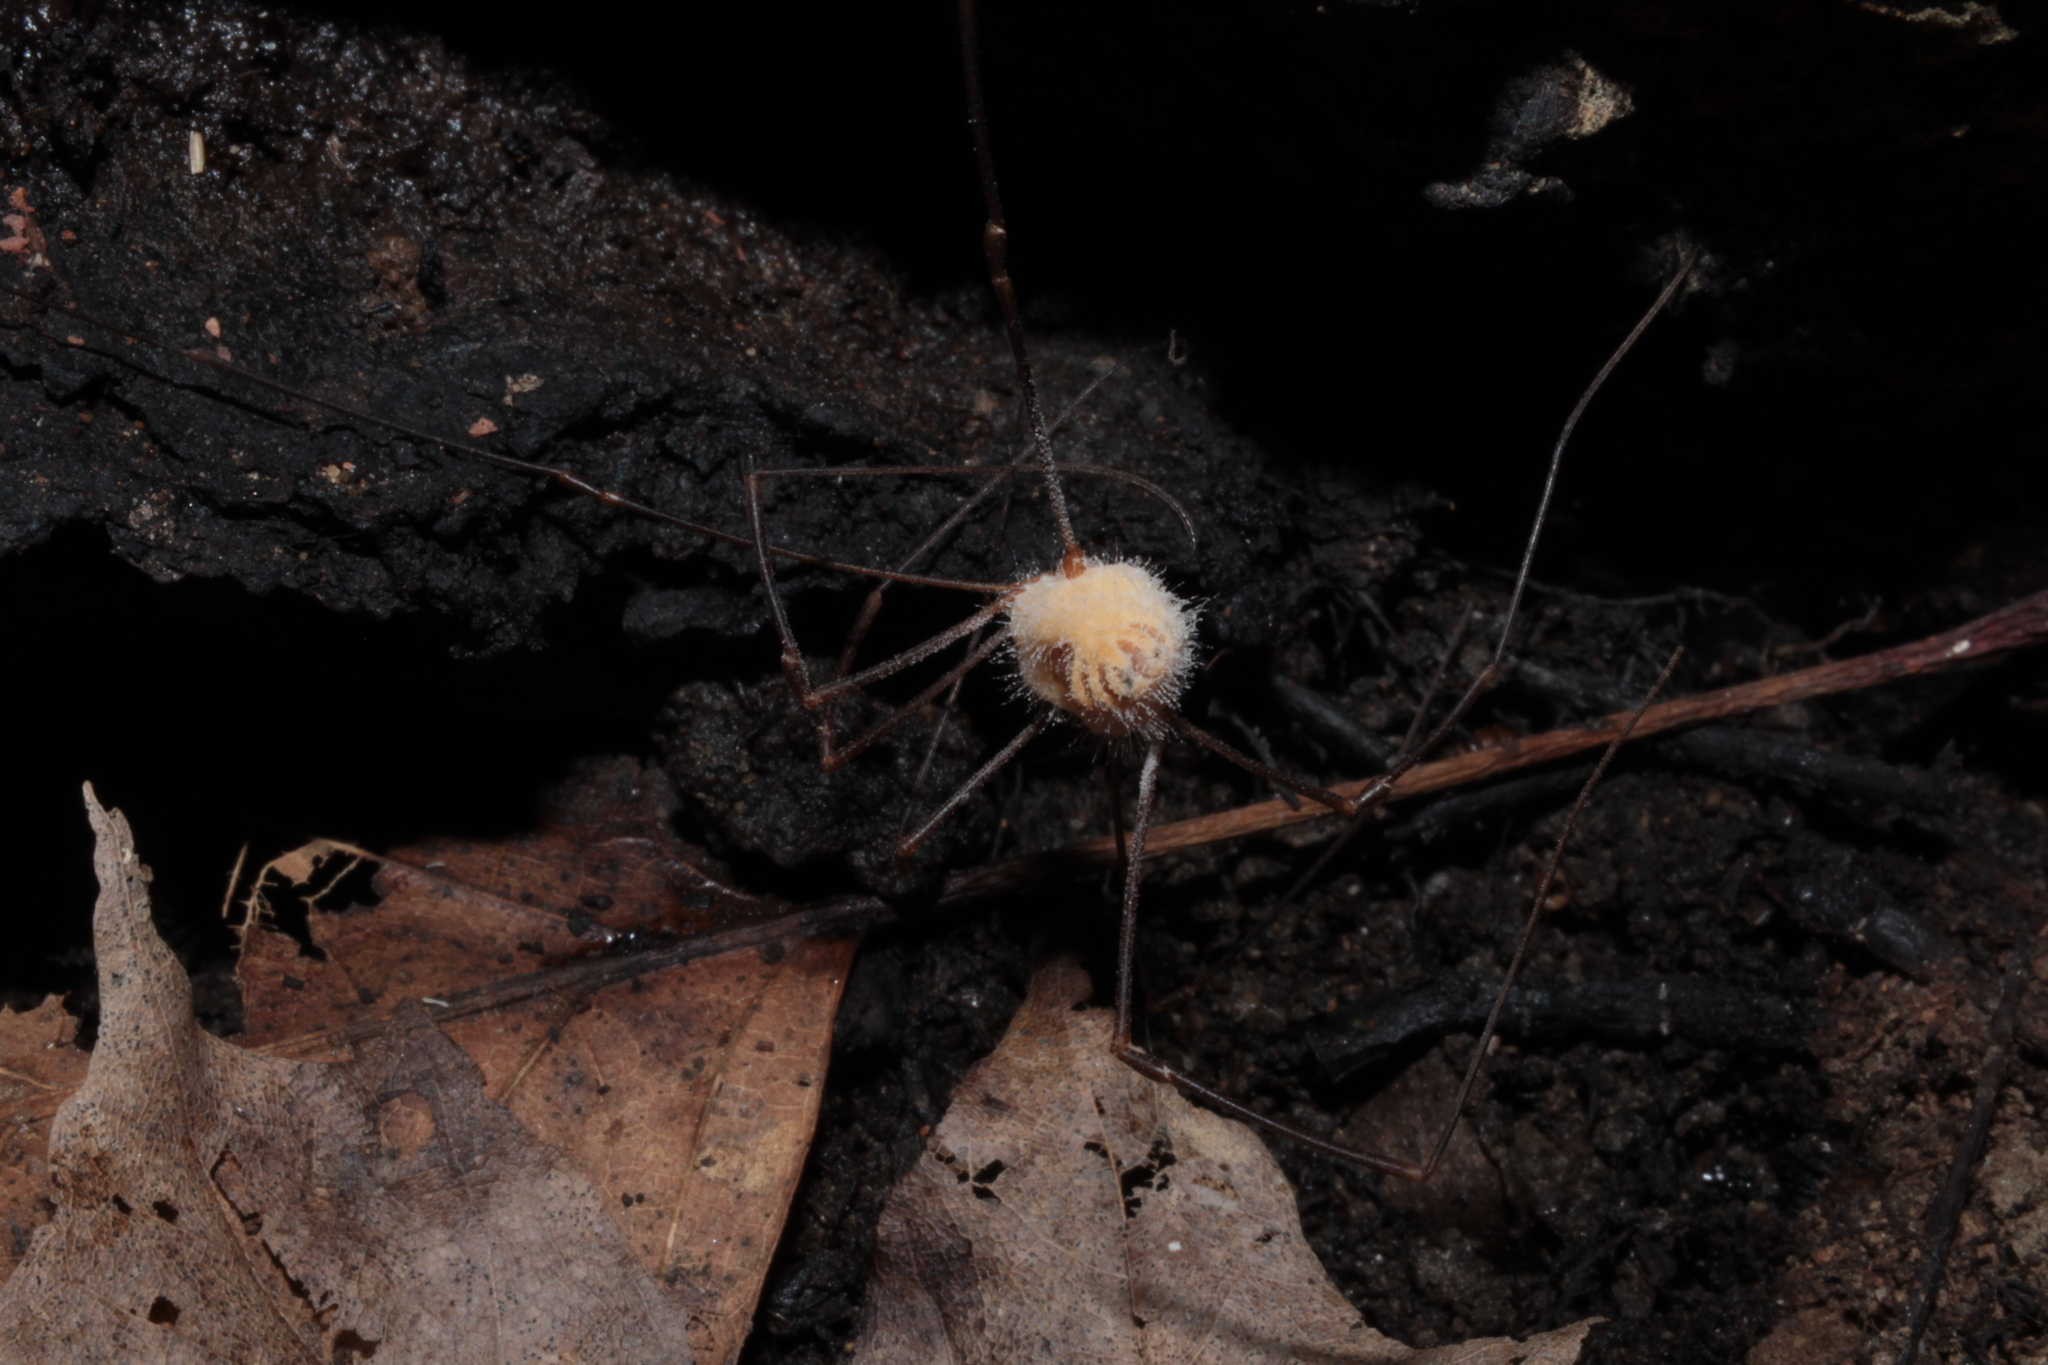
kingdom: Fungi
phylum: Entomophthoromycota
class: Entomophthoromycetes
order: Entomophthorales
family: Entomophthoraceae
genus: Pandora
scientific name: Pandora phalangicida
